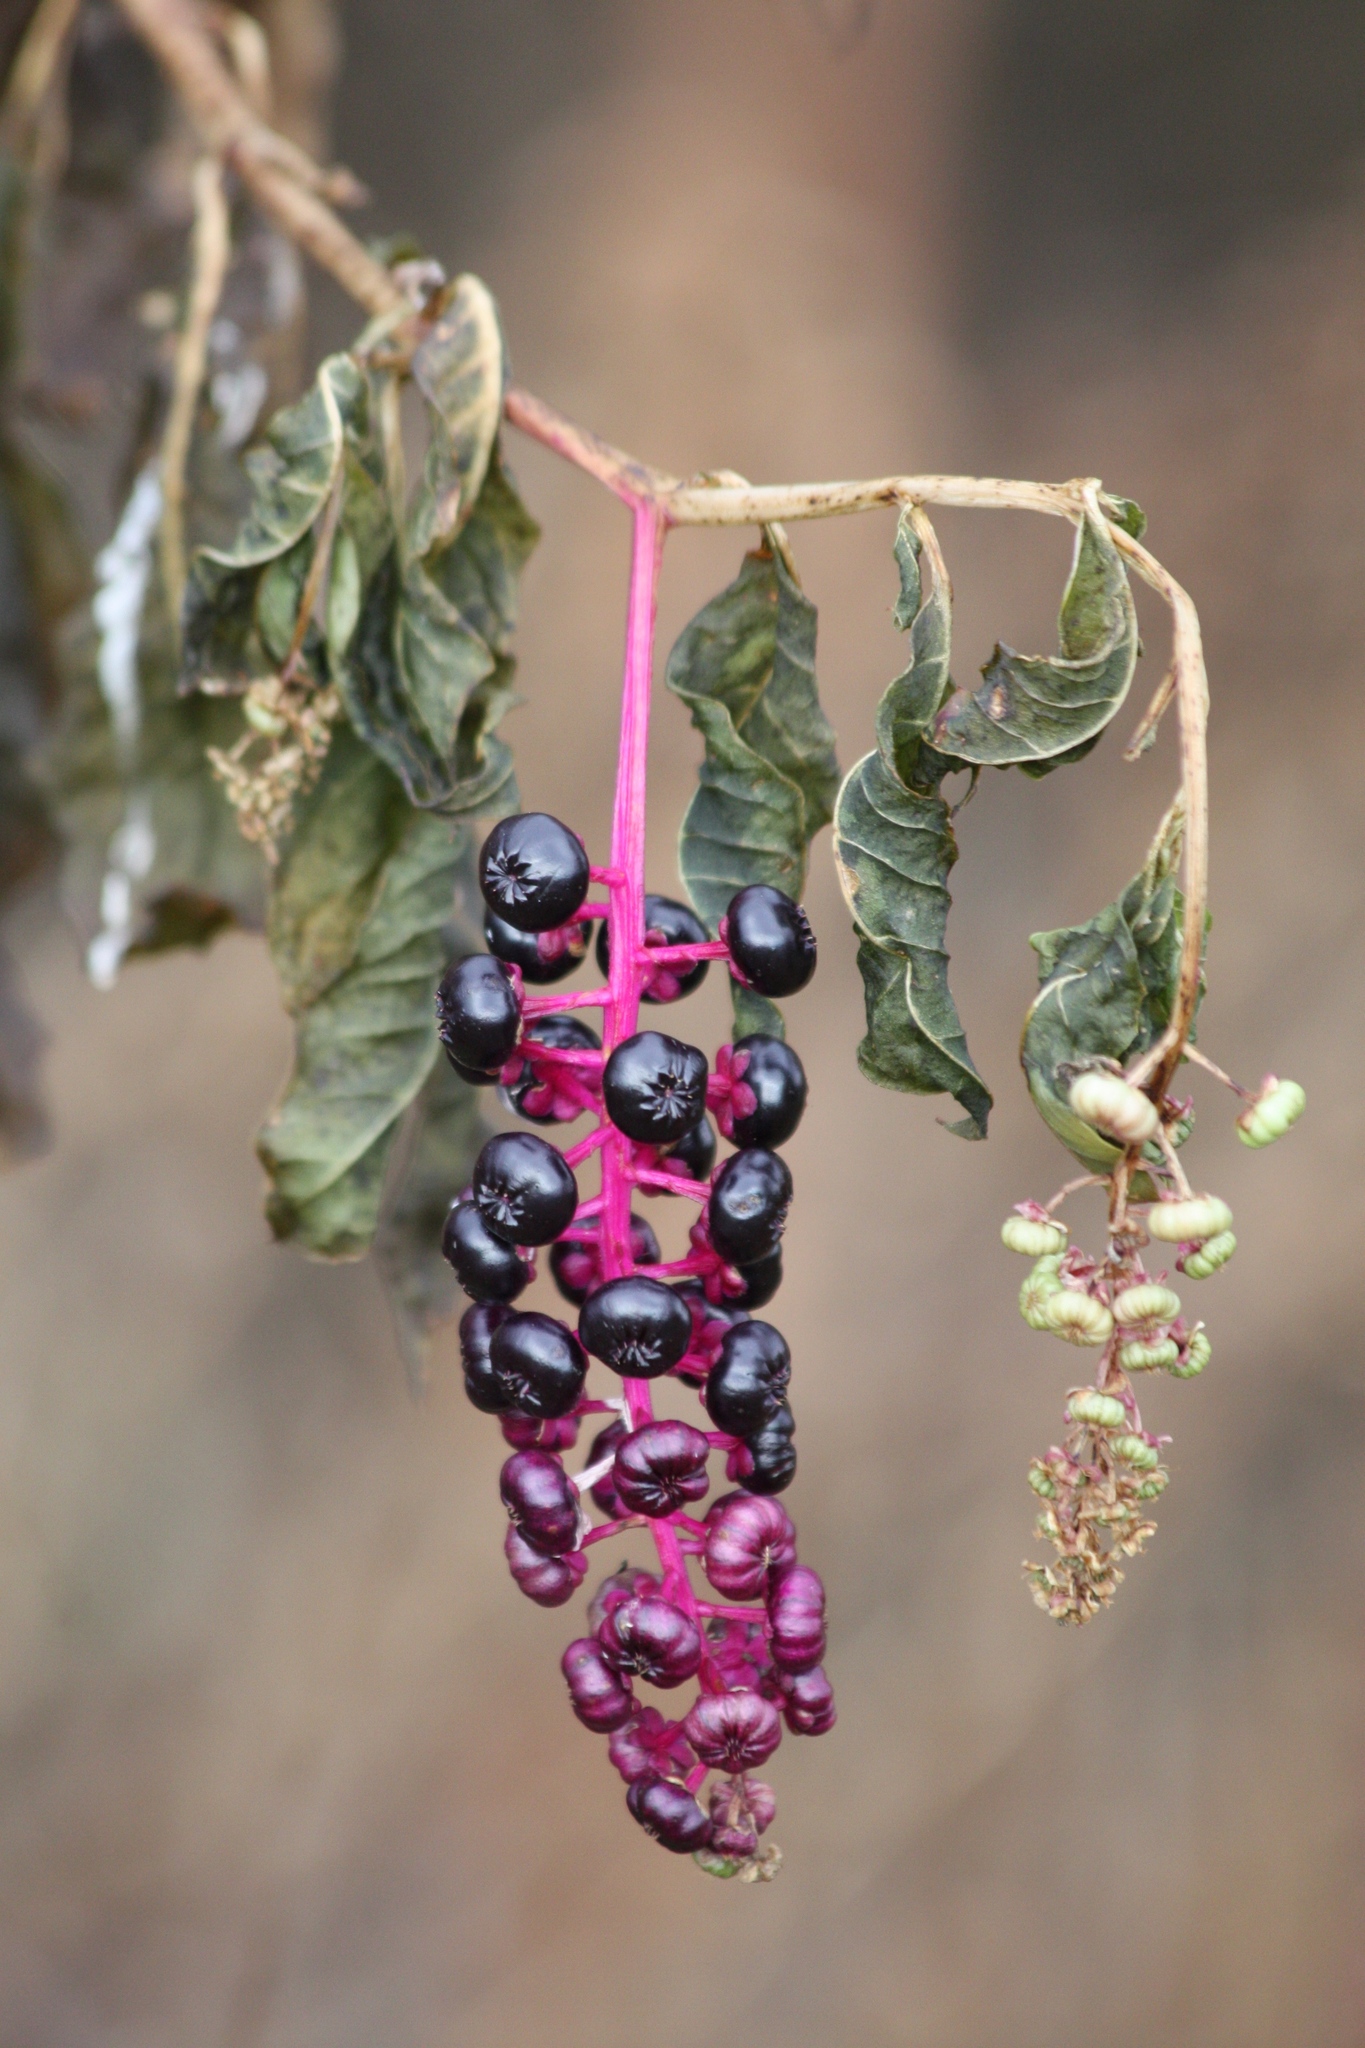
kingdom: Plantae
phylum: Tracheophyta
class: Magnoliopsida
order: Caryophyllales
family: Phytolaccaceae
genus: Phytolacca
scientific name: Phytolacca americana
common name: American pokeweed
